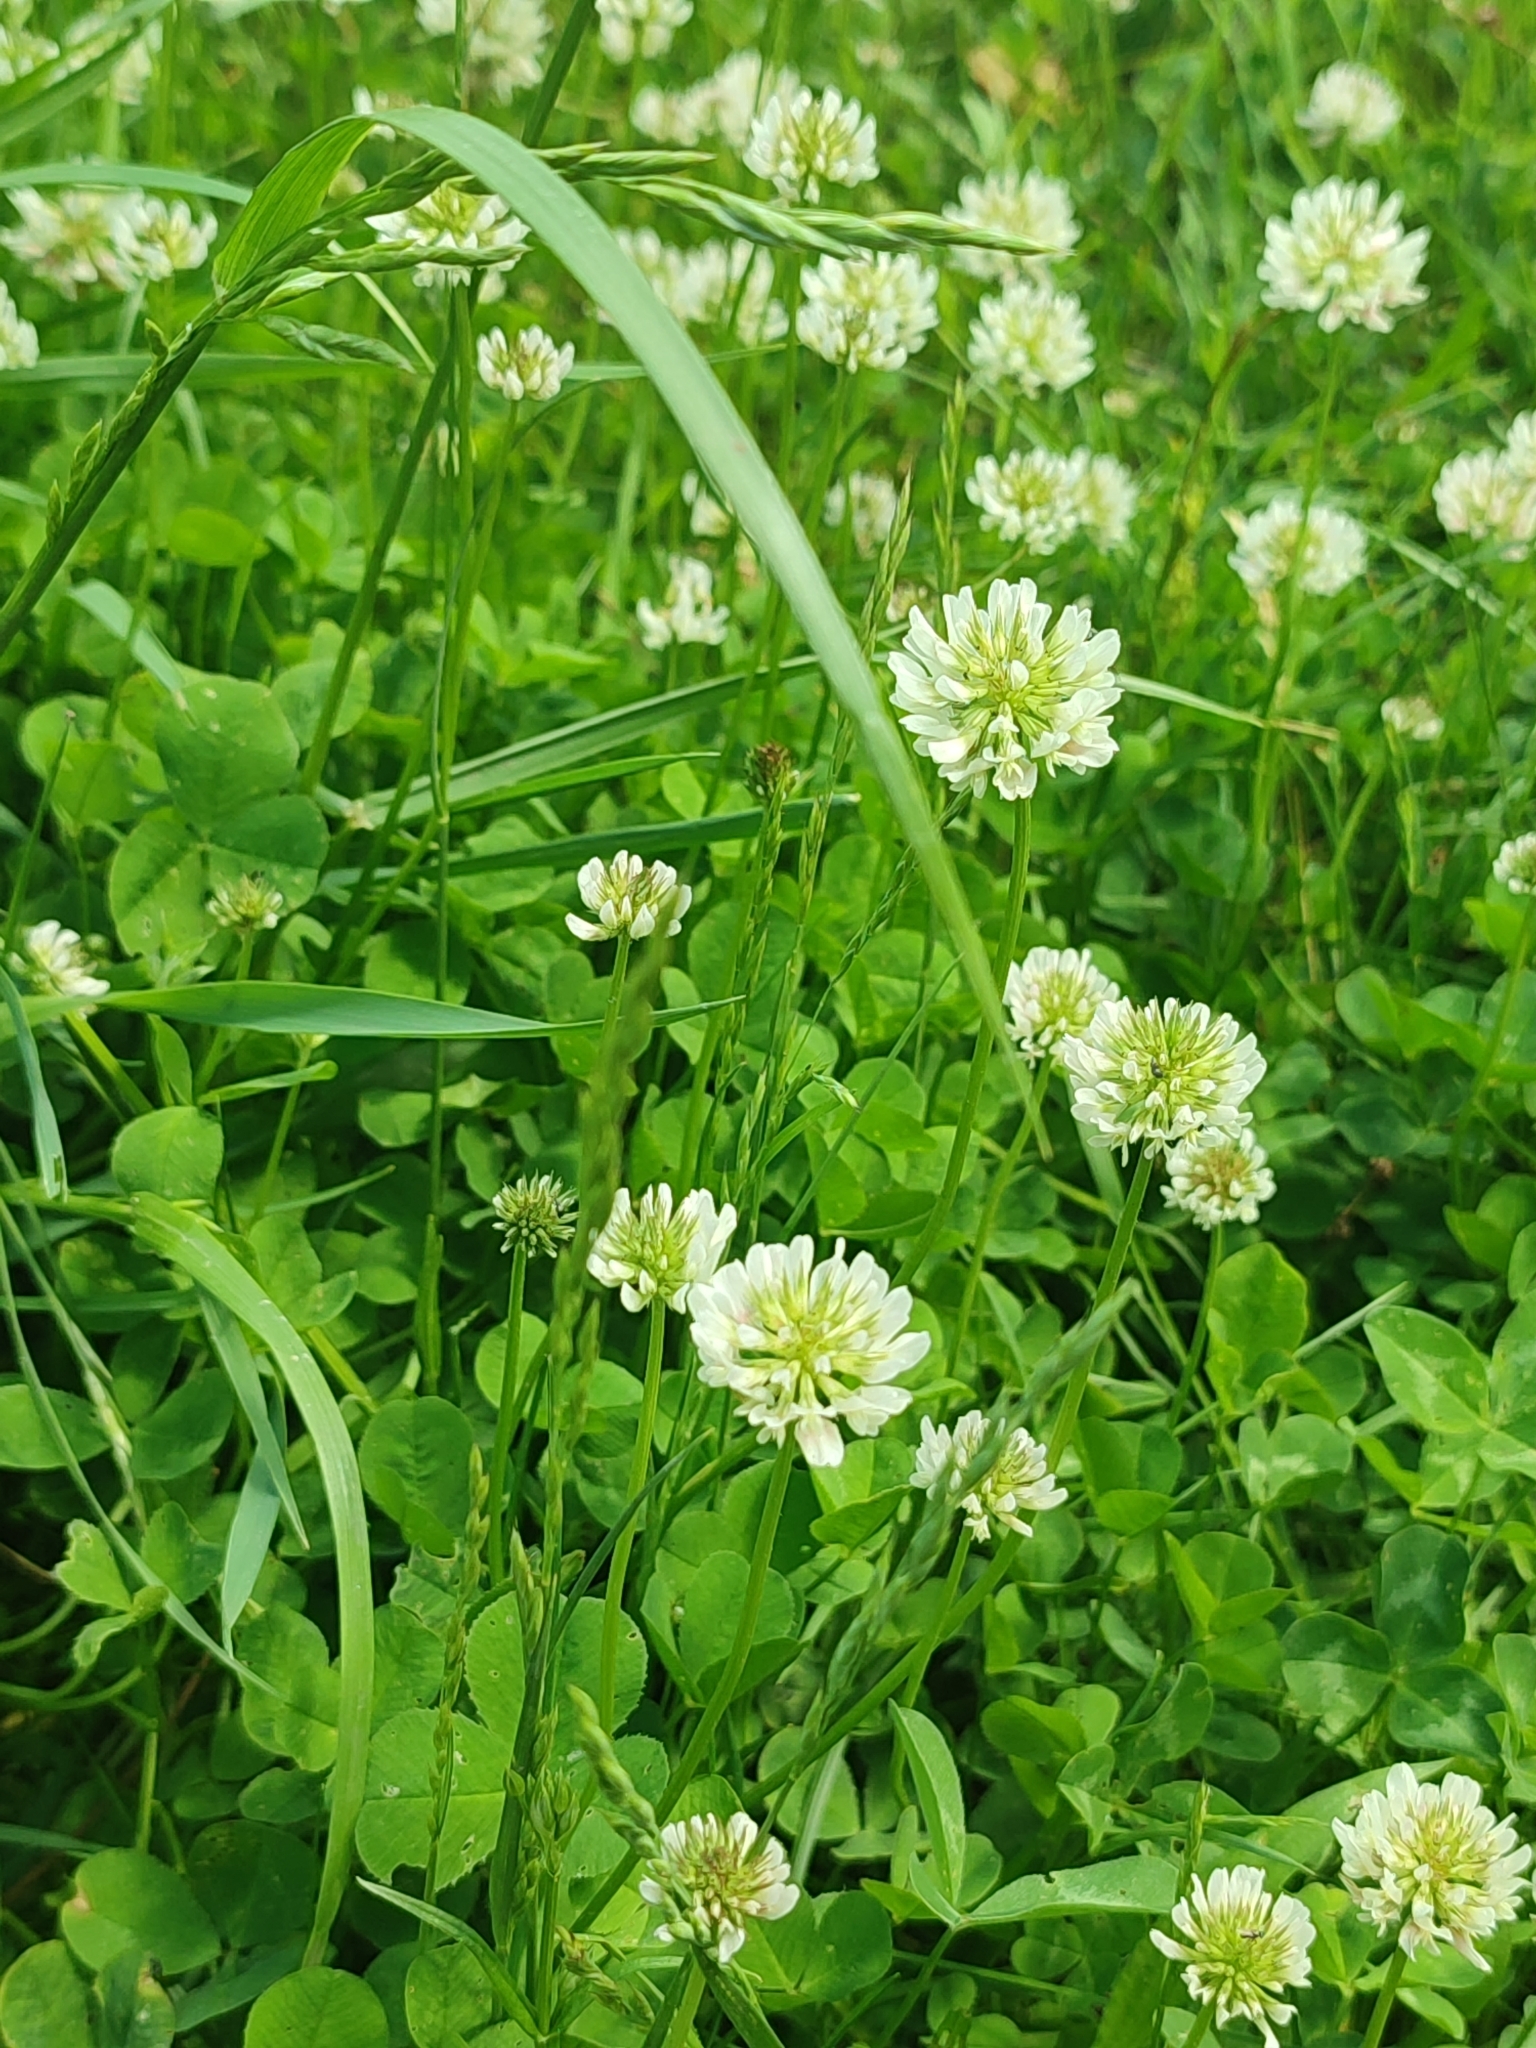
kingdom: Plantae
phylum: Tracheophyta
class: Magnoliopsida
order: Fabales
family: Fabaceae
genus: Trifolium
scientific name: Trifolium repens
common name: White clover
